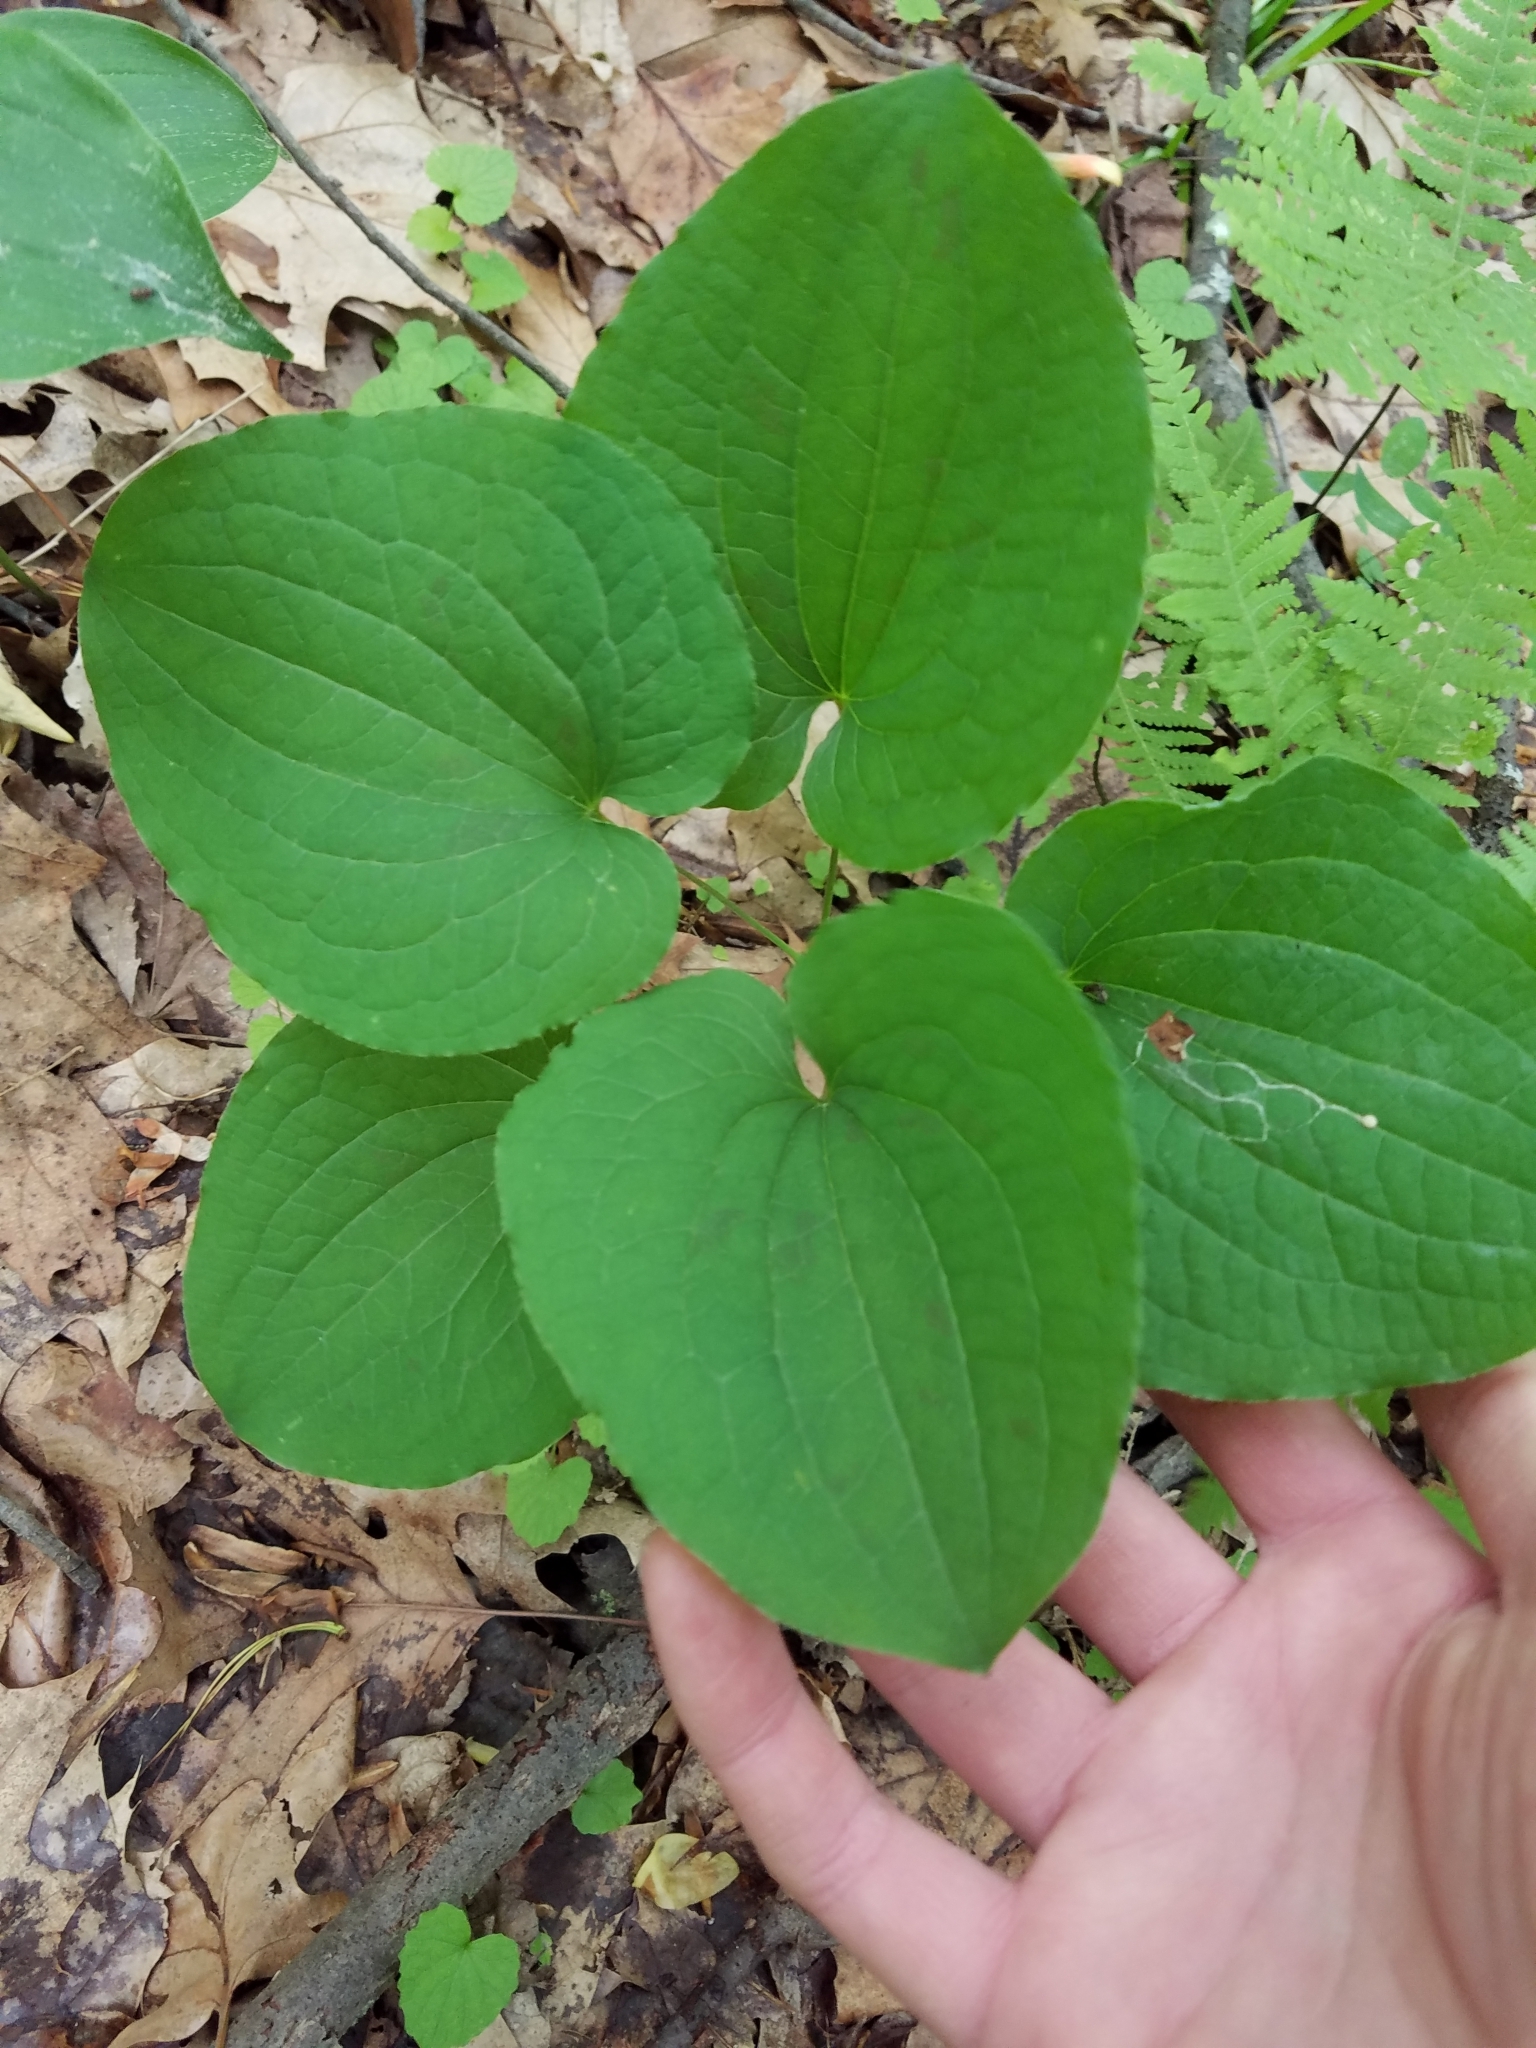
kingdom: Plantae
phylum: Tracheophyta
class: Liliopsida
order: Liliales
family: Smilacaceae
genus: Smilax
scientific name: Smilax herbacea
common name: Jacob's-ladder
